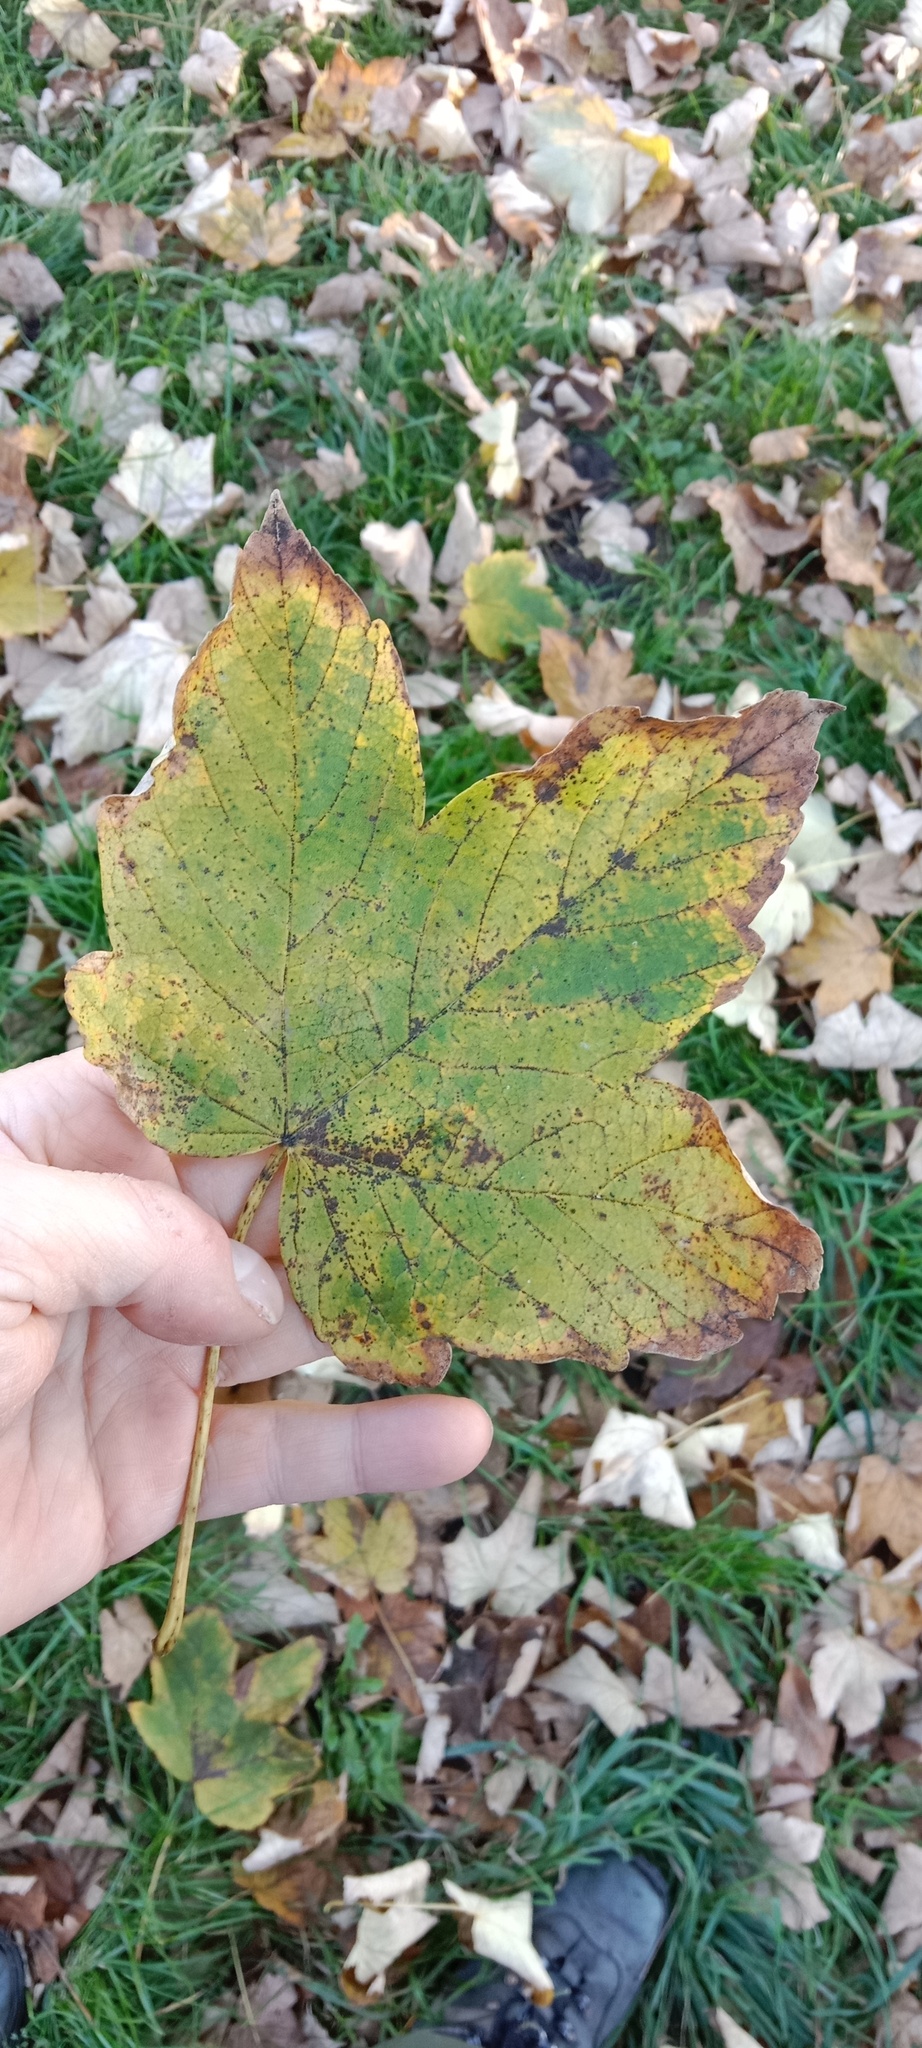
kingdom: Plantae
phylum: Tracheophyta
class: Magnoliopsida
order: Sapindales
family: Sapindaceae
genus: Acer
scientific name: Acer pseudoplatanus
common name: Sycamore
